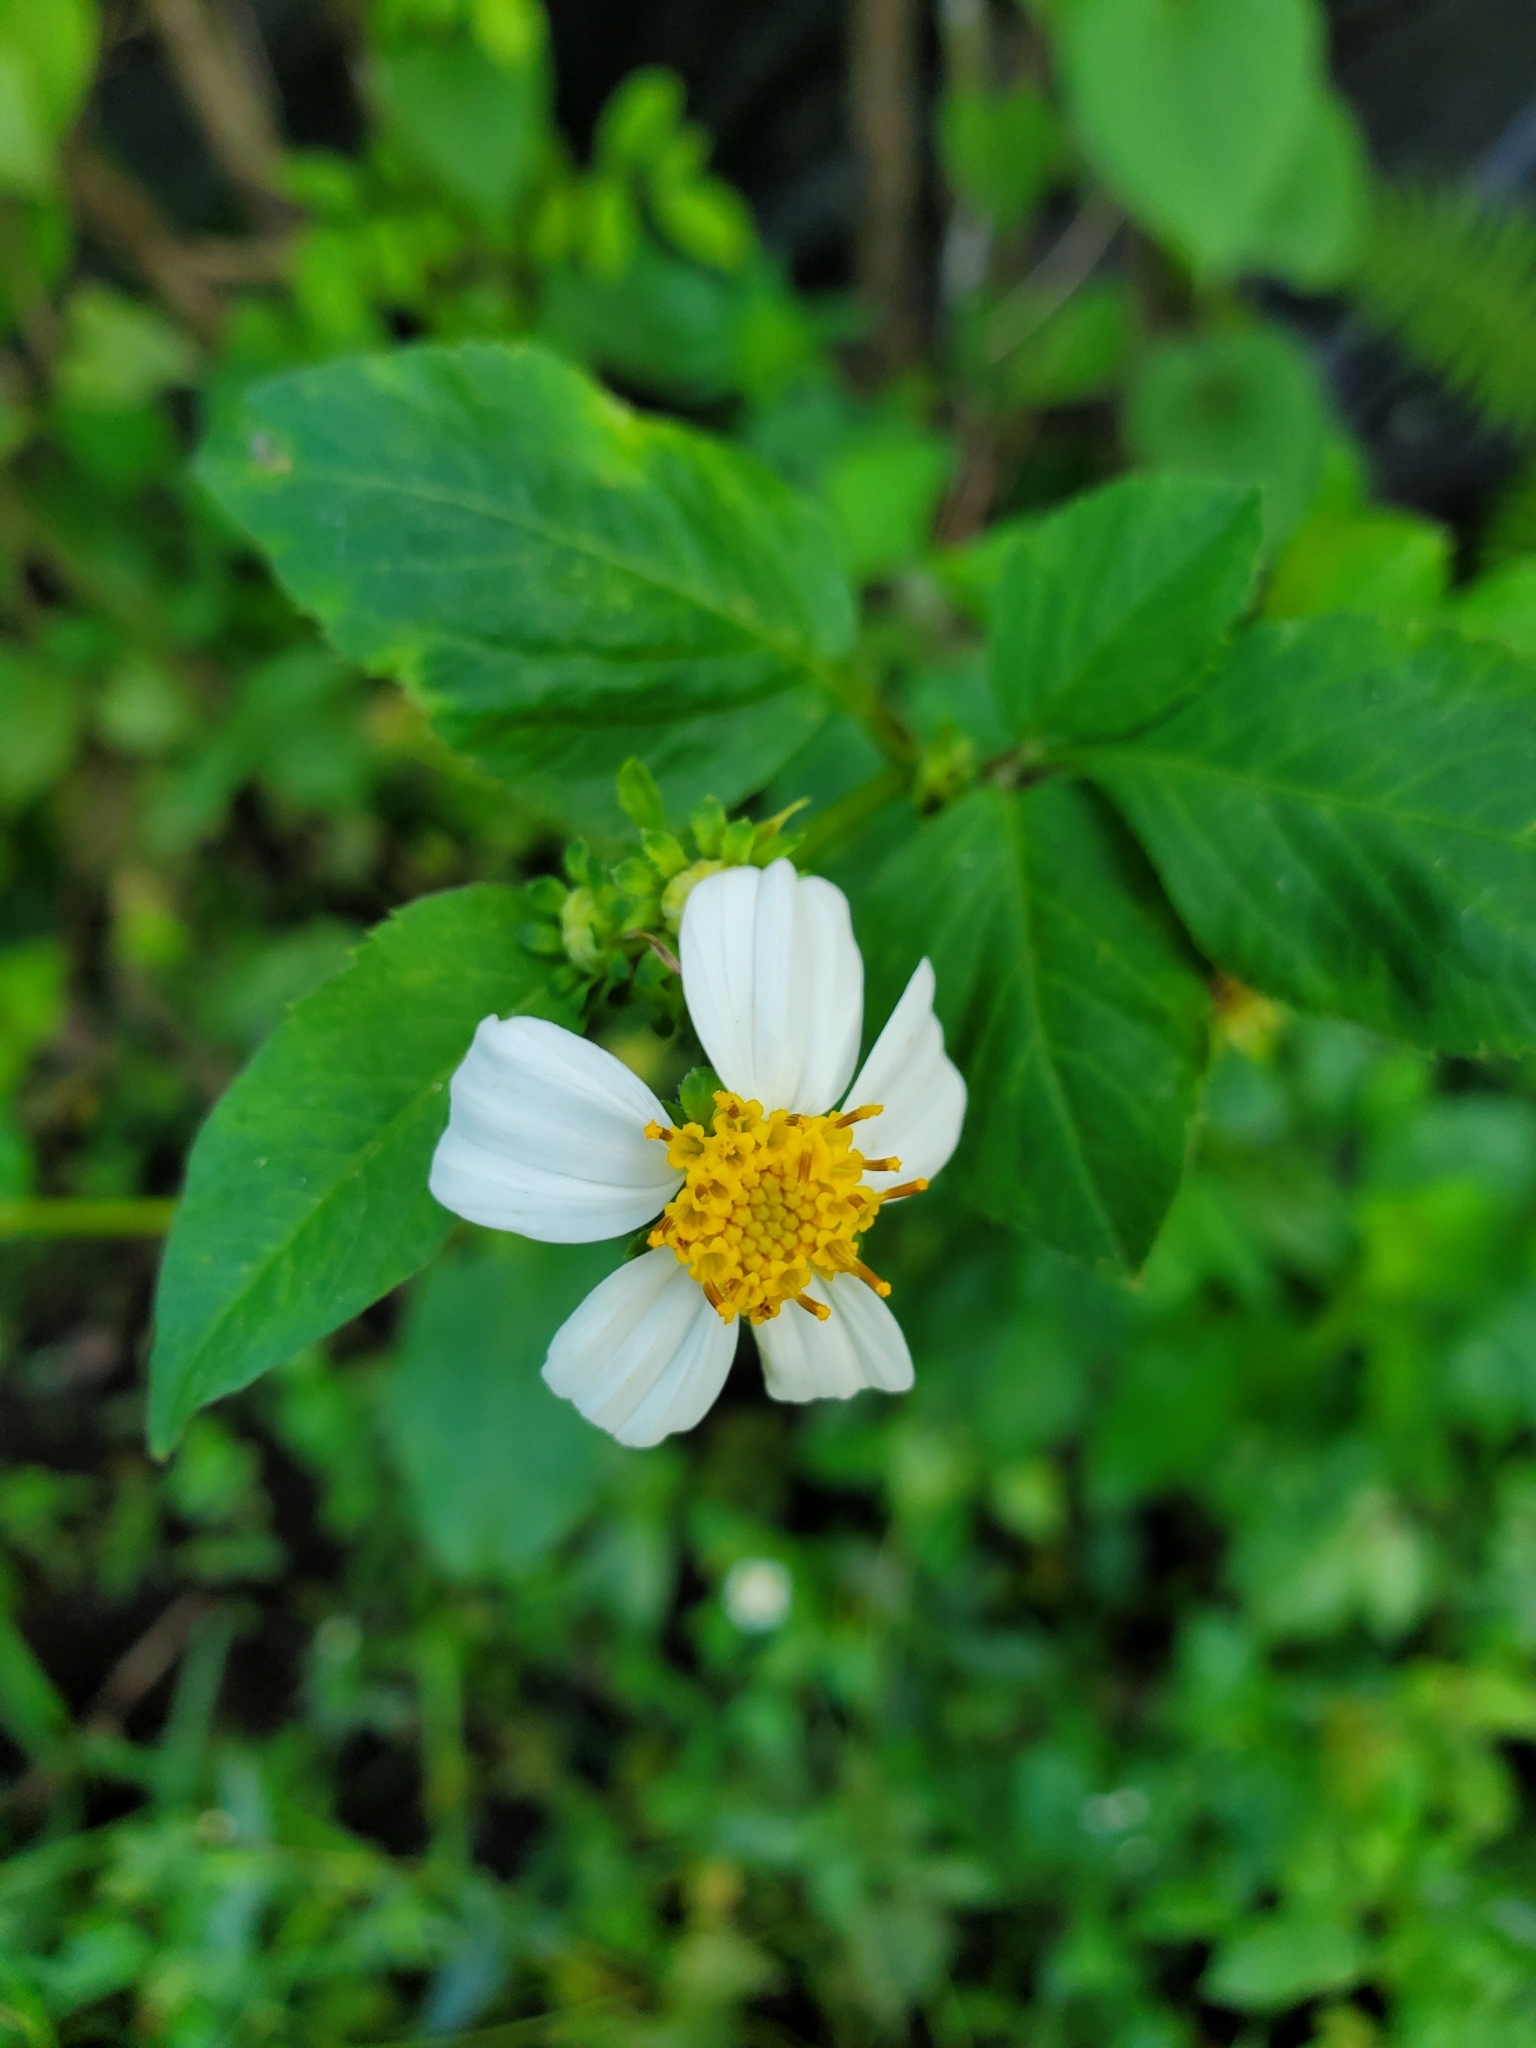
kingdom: Plantae
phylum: Tracheophyta
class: Magnoliopsida
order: Asterales
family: Asteraceae
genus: Bidens
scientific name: Bidens alba
